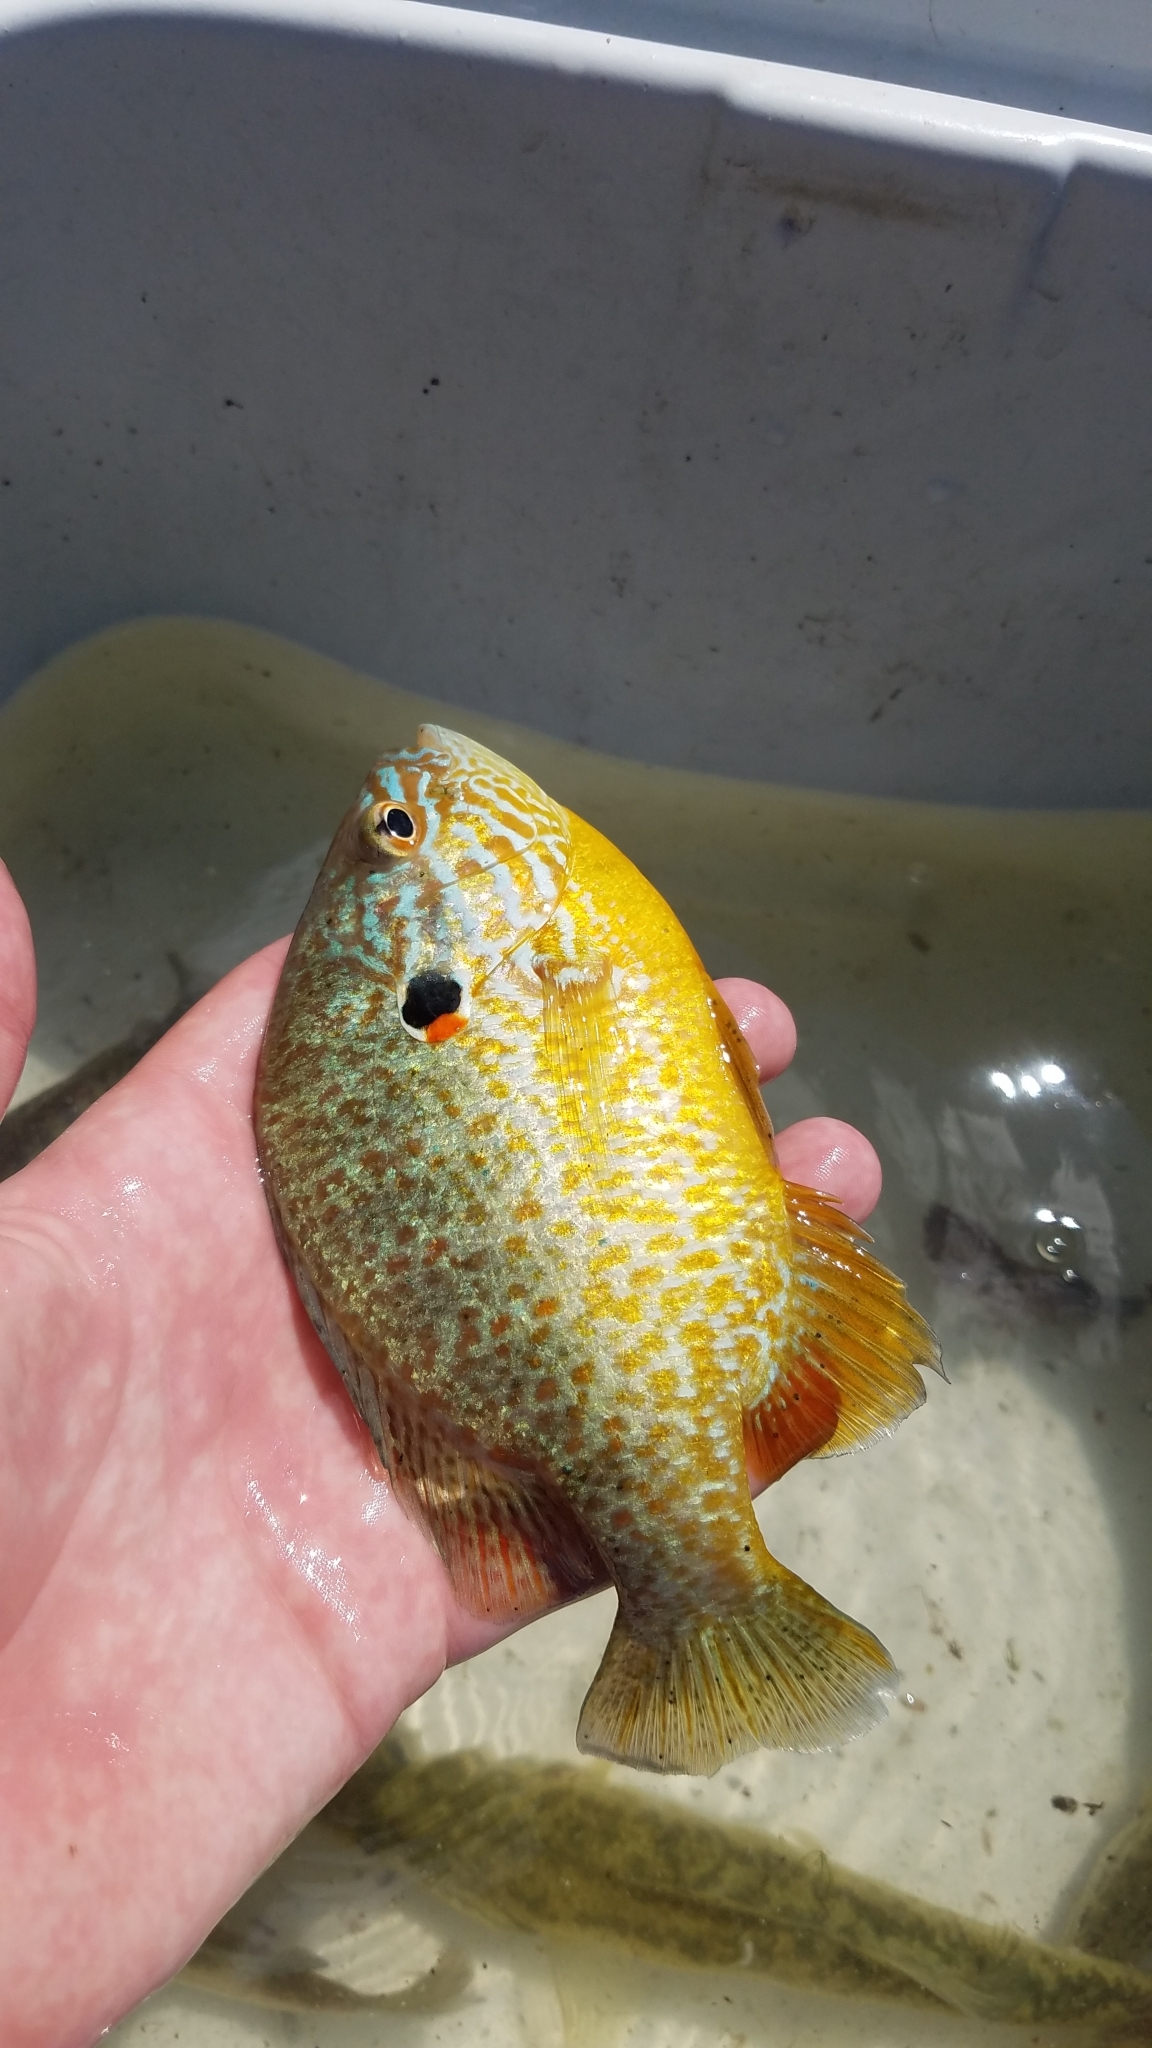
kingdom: Animalia
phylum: Chordata
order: Perciformes
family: Centrarchidae
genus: Lepomis
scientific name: Lepomis gibbosus
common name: Pumpkinseed
